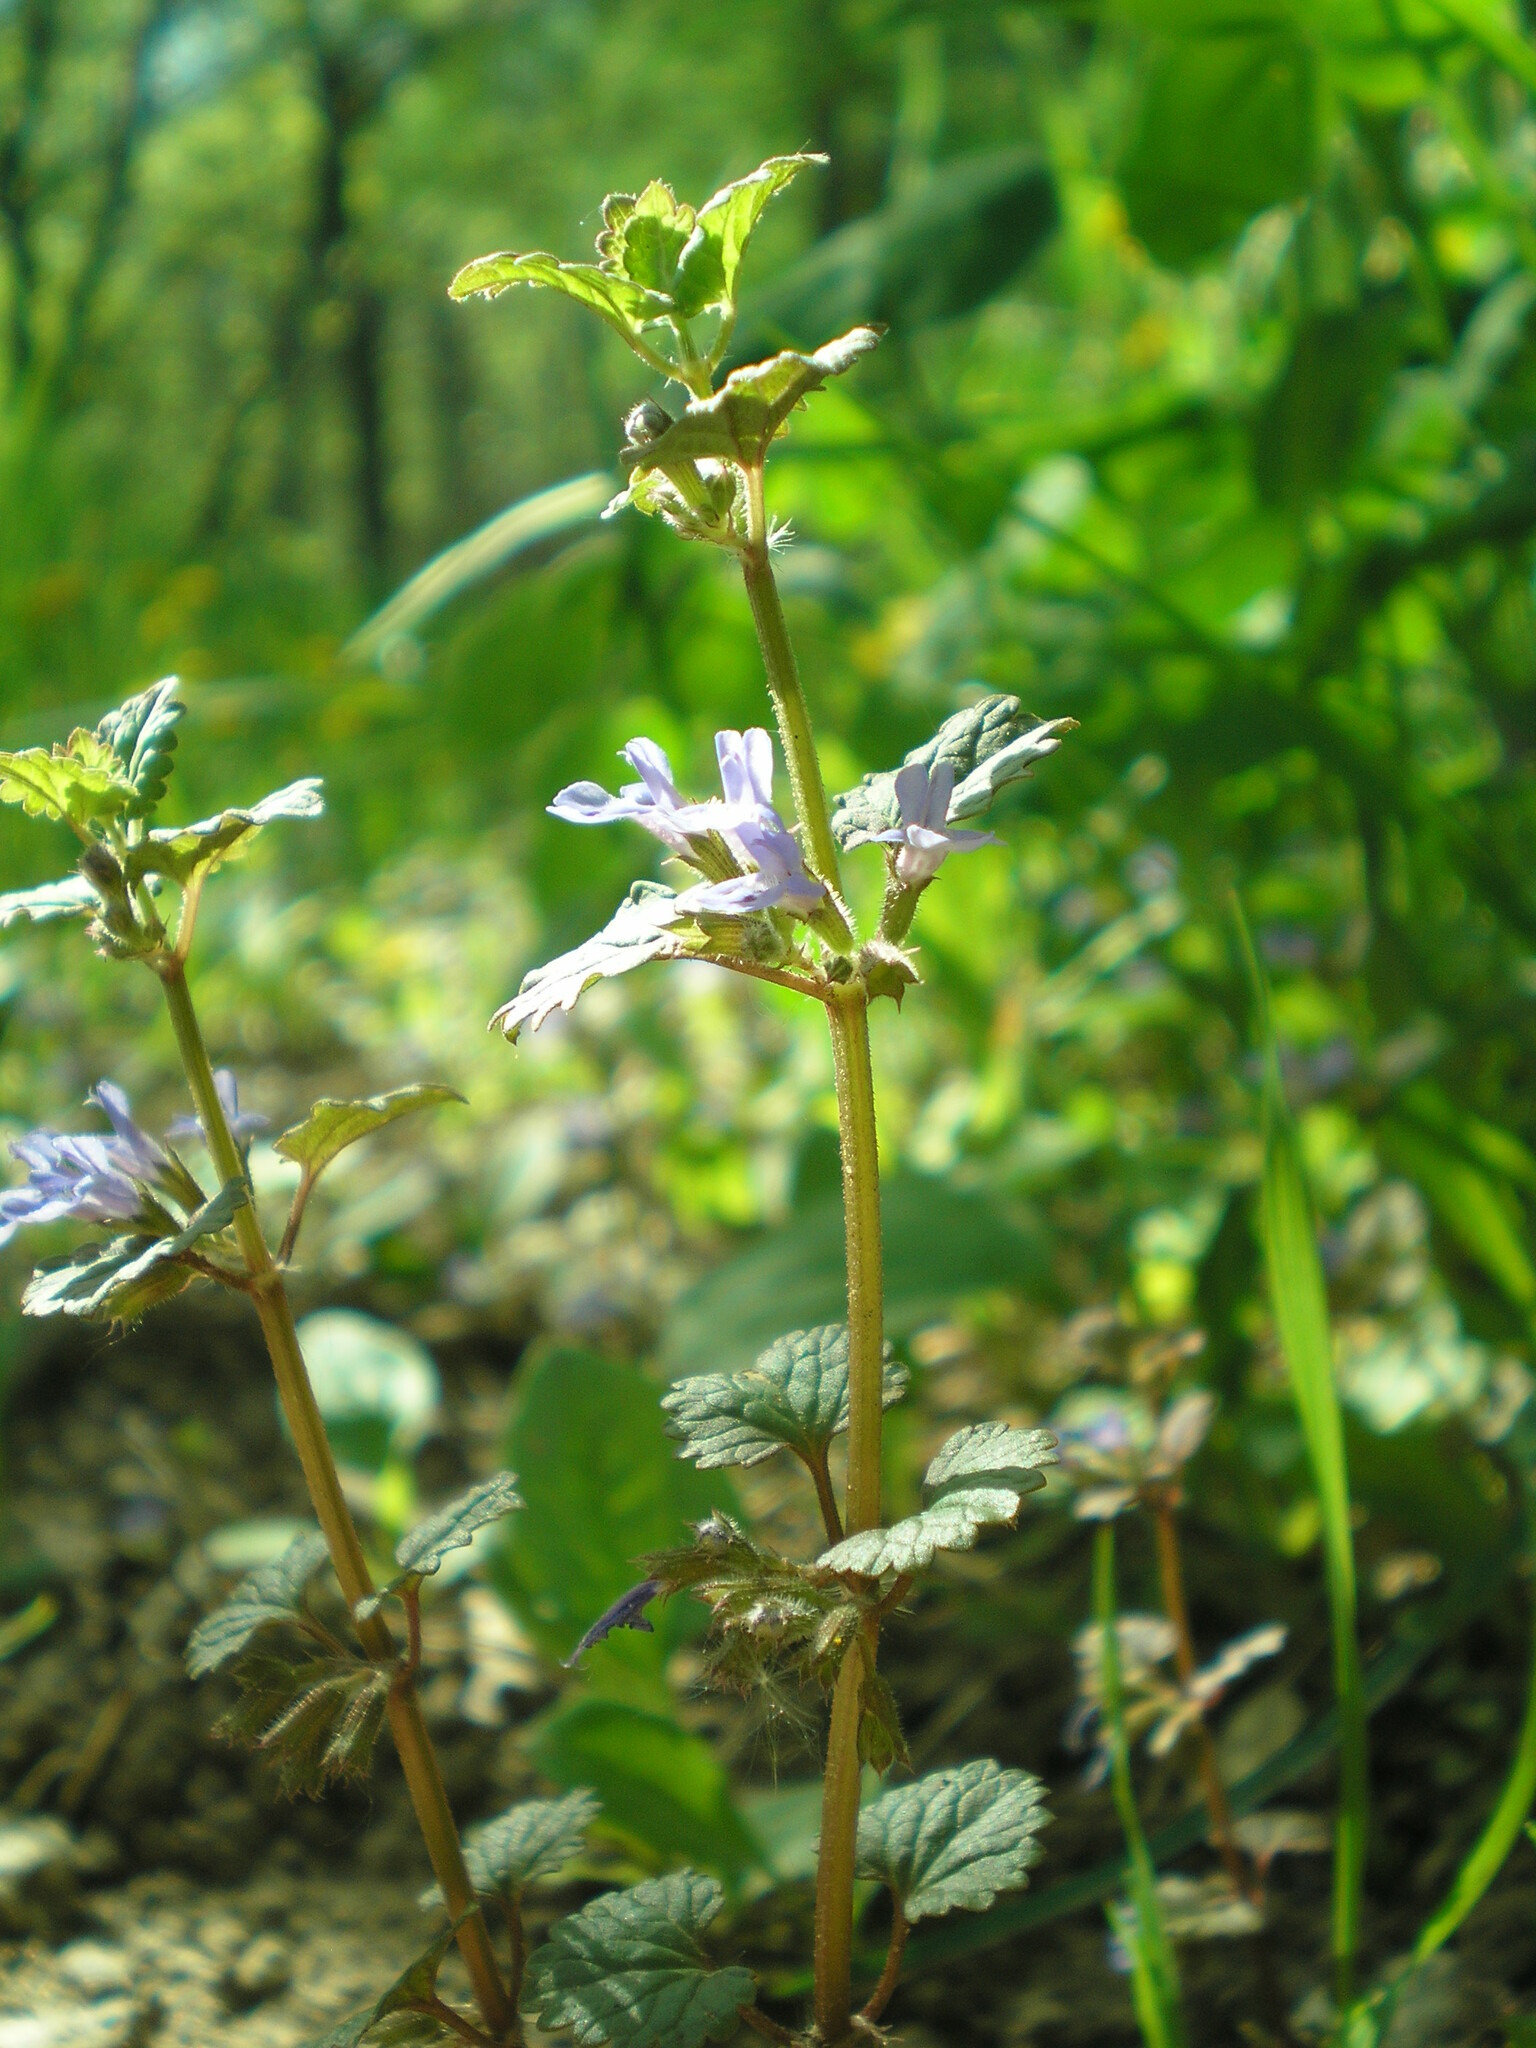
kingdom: Plantae
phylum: Tracheophyta
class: Magnoliopsida
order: Lamiales
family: Lamiaceae
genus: Glechoma
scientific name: Glechoma hederacea
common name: Ground ivy
